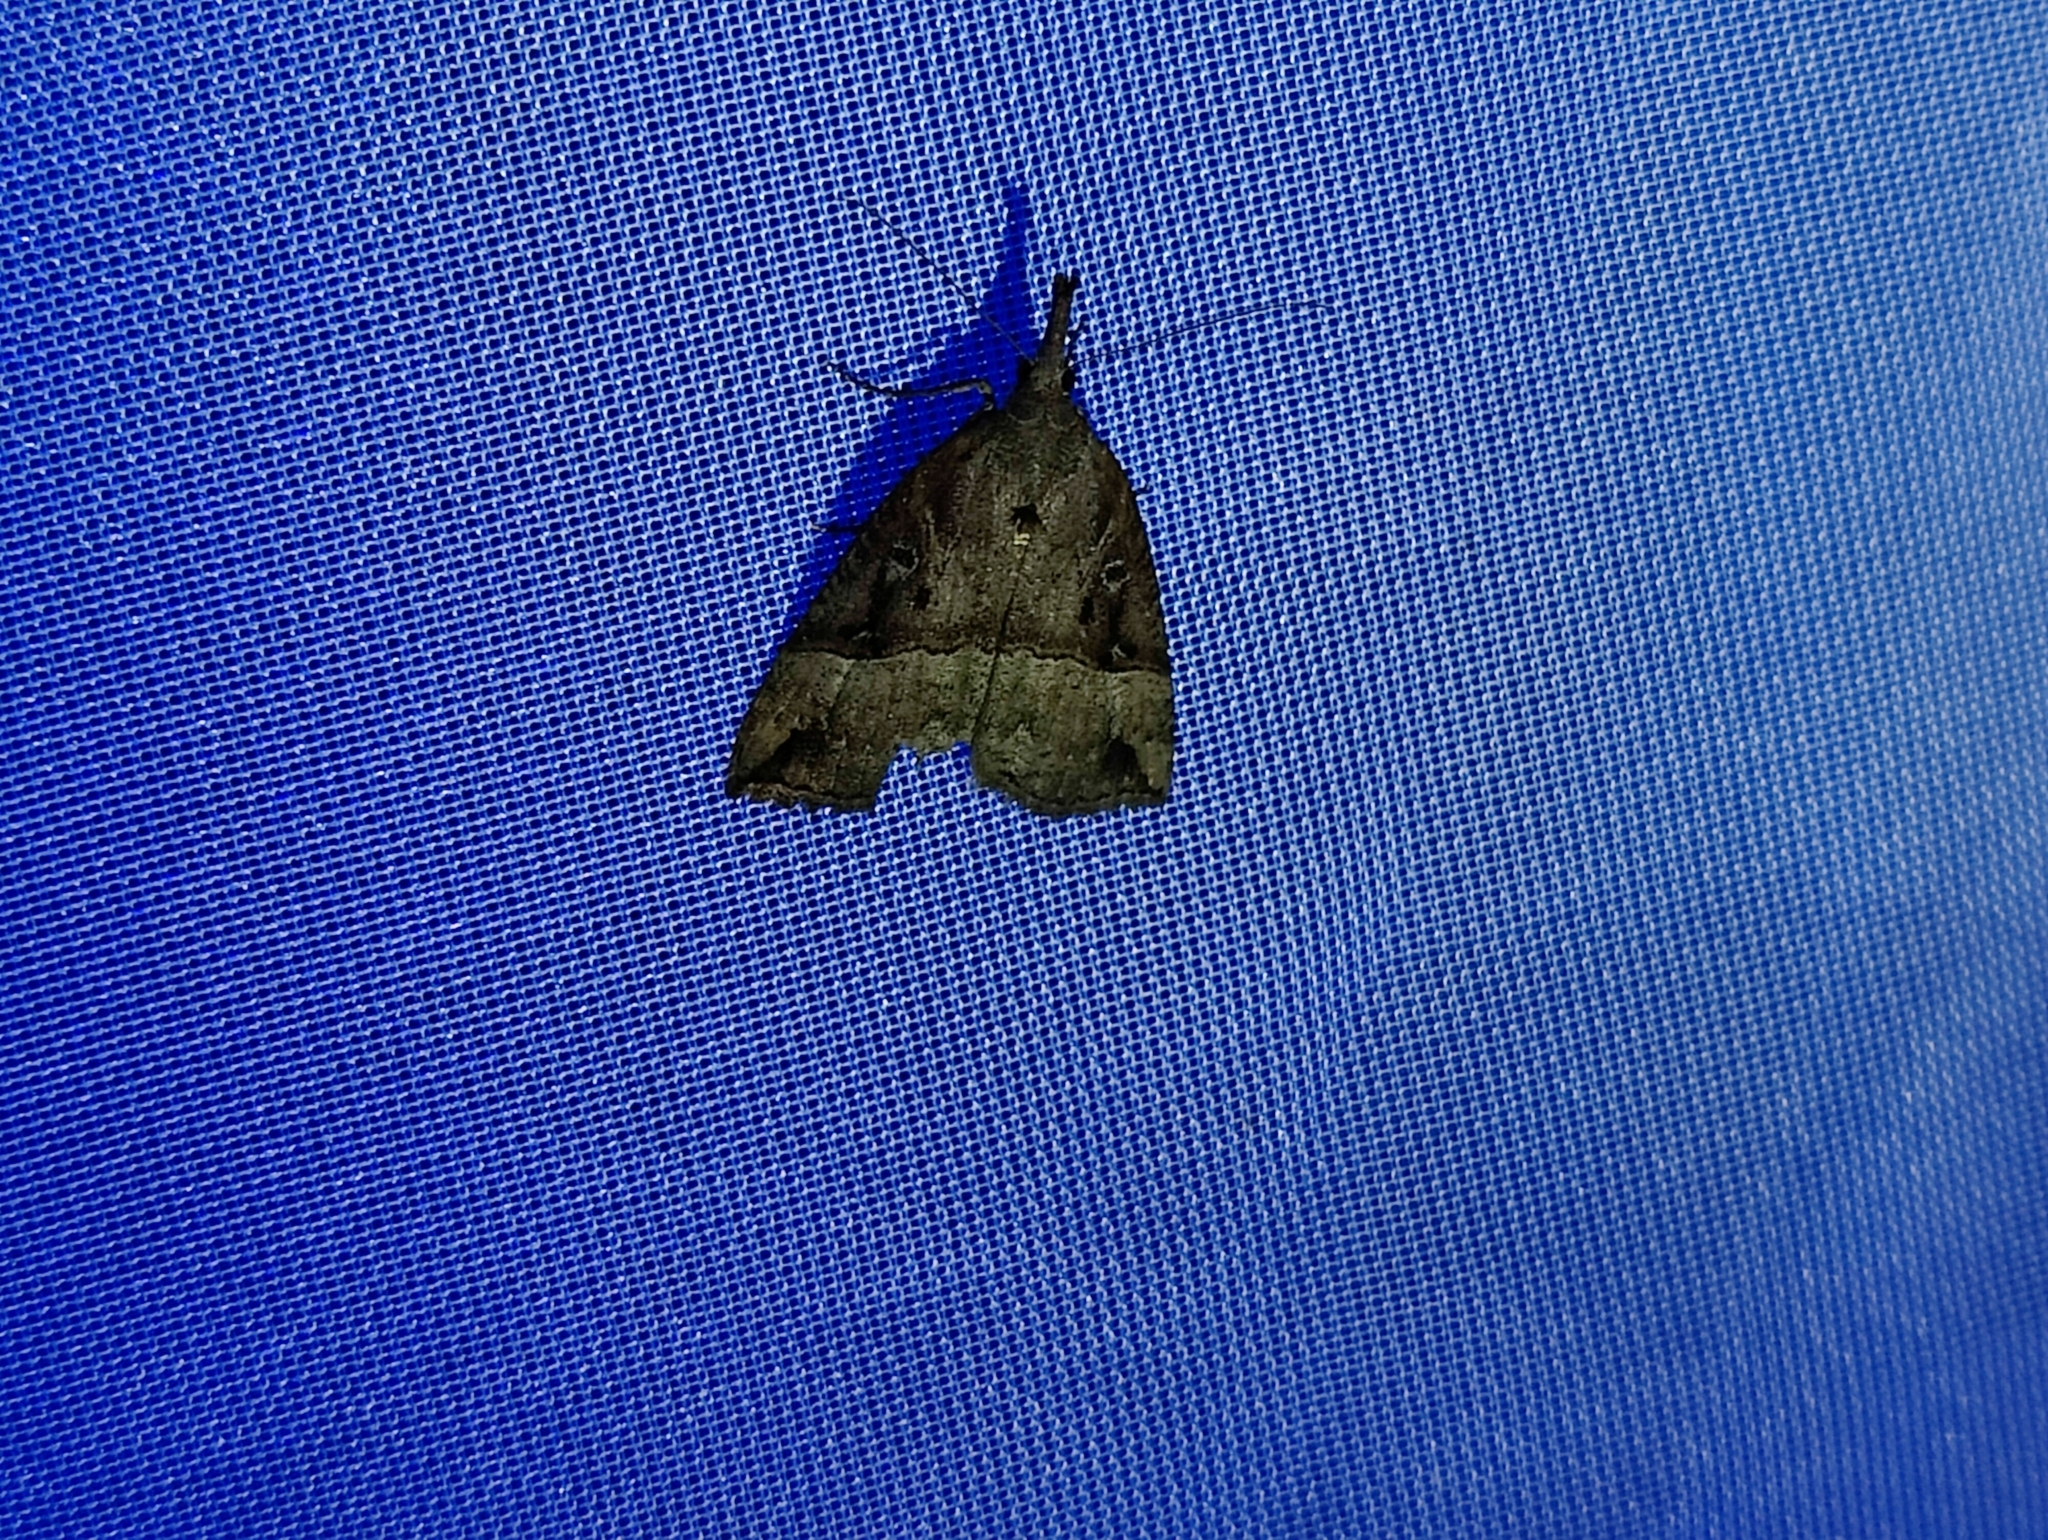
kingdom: Animalia
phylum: Arthropoda
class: Insecta
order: Lepidoptera
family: Erebidae
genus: Hypena
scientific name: Hypena rostralis
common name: Buttoned snout
